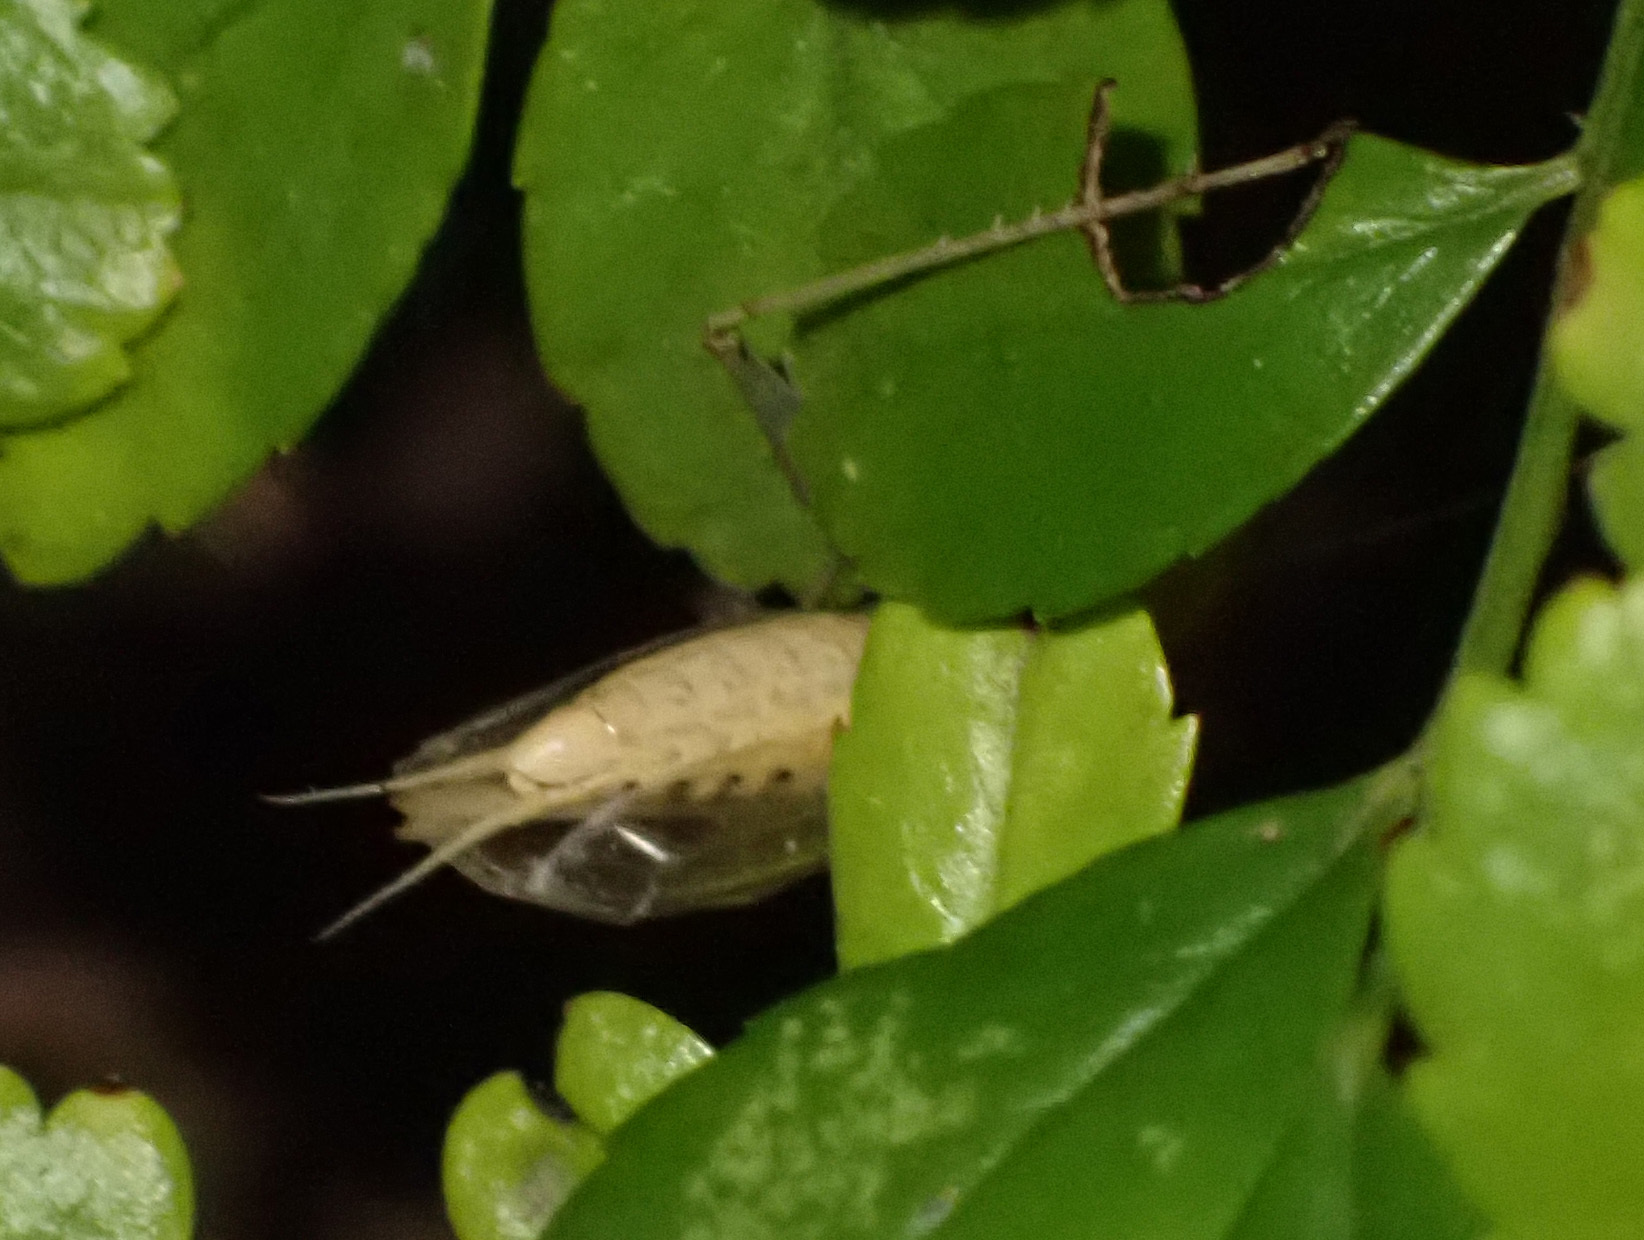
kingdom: Animalia
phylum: Arthropoda
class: Insecta
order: Orthoptera
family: Gryllidae
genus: Oecanthus
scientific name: Oecanthus pellucens
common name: Tree-cricket
